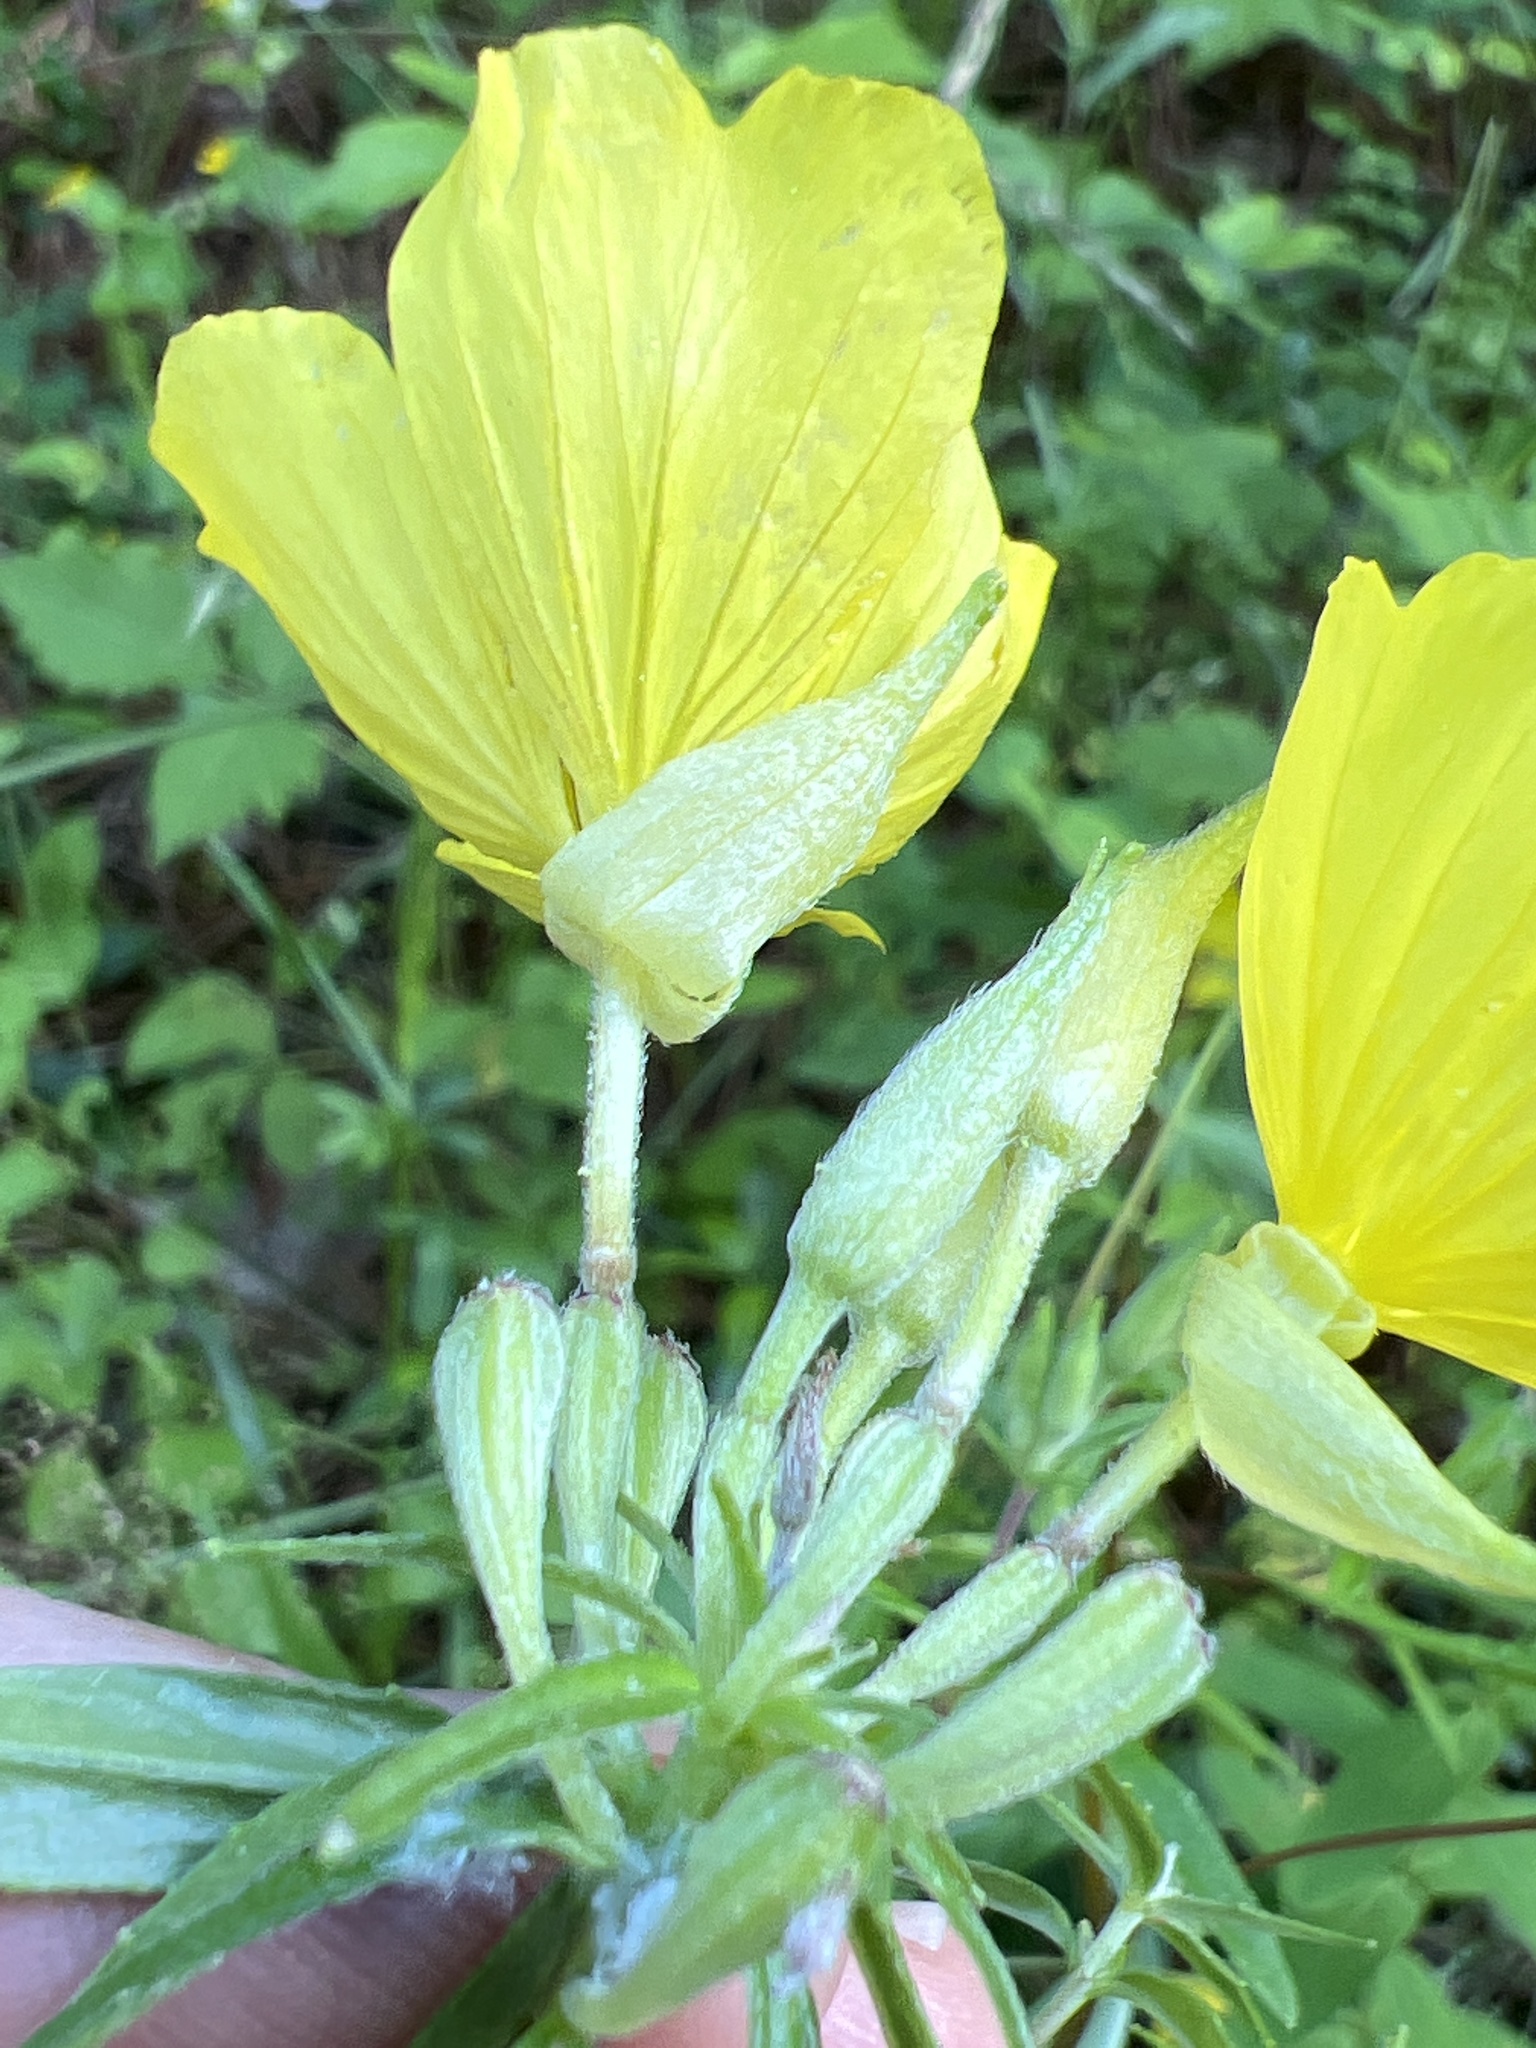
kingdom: Plantae
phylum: Tracheophyta
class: Magnoliopsida
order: Myrtales
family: Onagraceae
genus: Oenothera
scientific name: Oenothera fruticosa
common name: Southern sundrops
